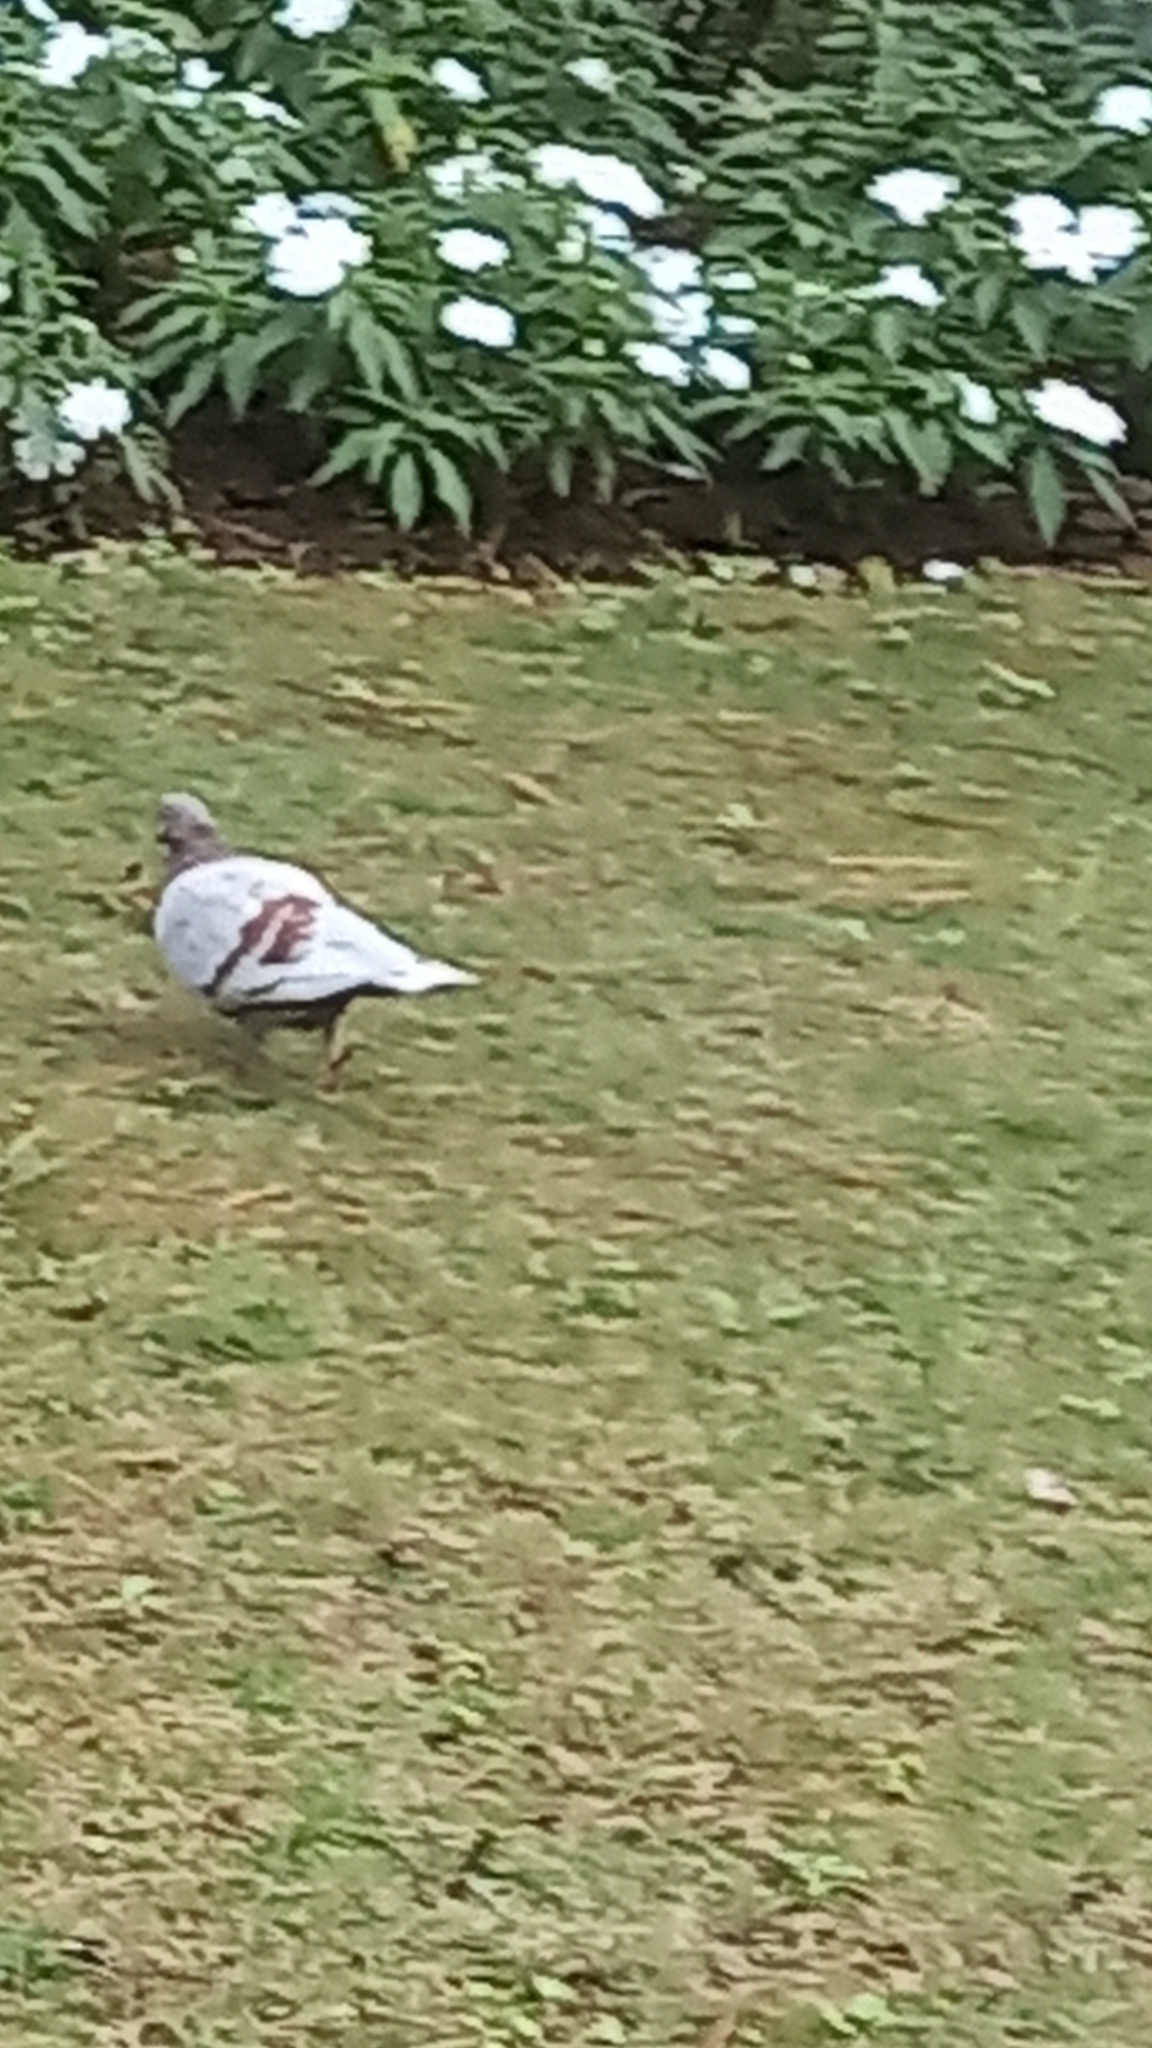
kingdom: Animalia
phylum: Chordata
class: Aves
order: Columbiformes
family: Columbidae
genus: Columba
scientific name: Columba livia
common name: Rock pigeon
